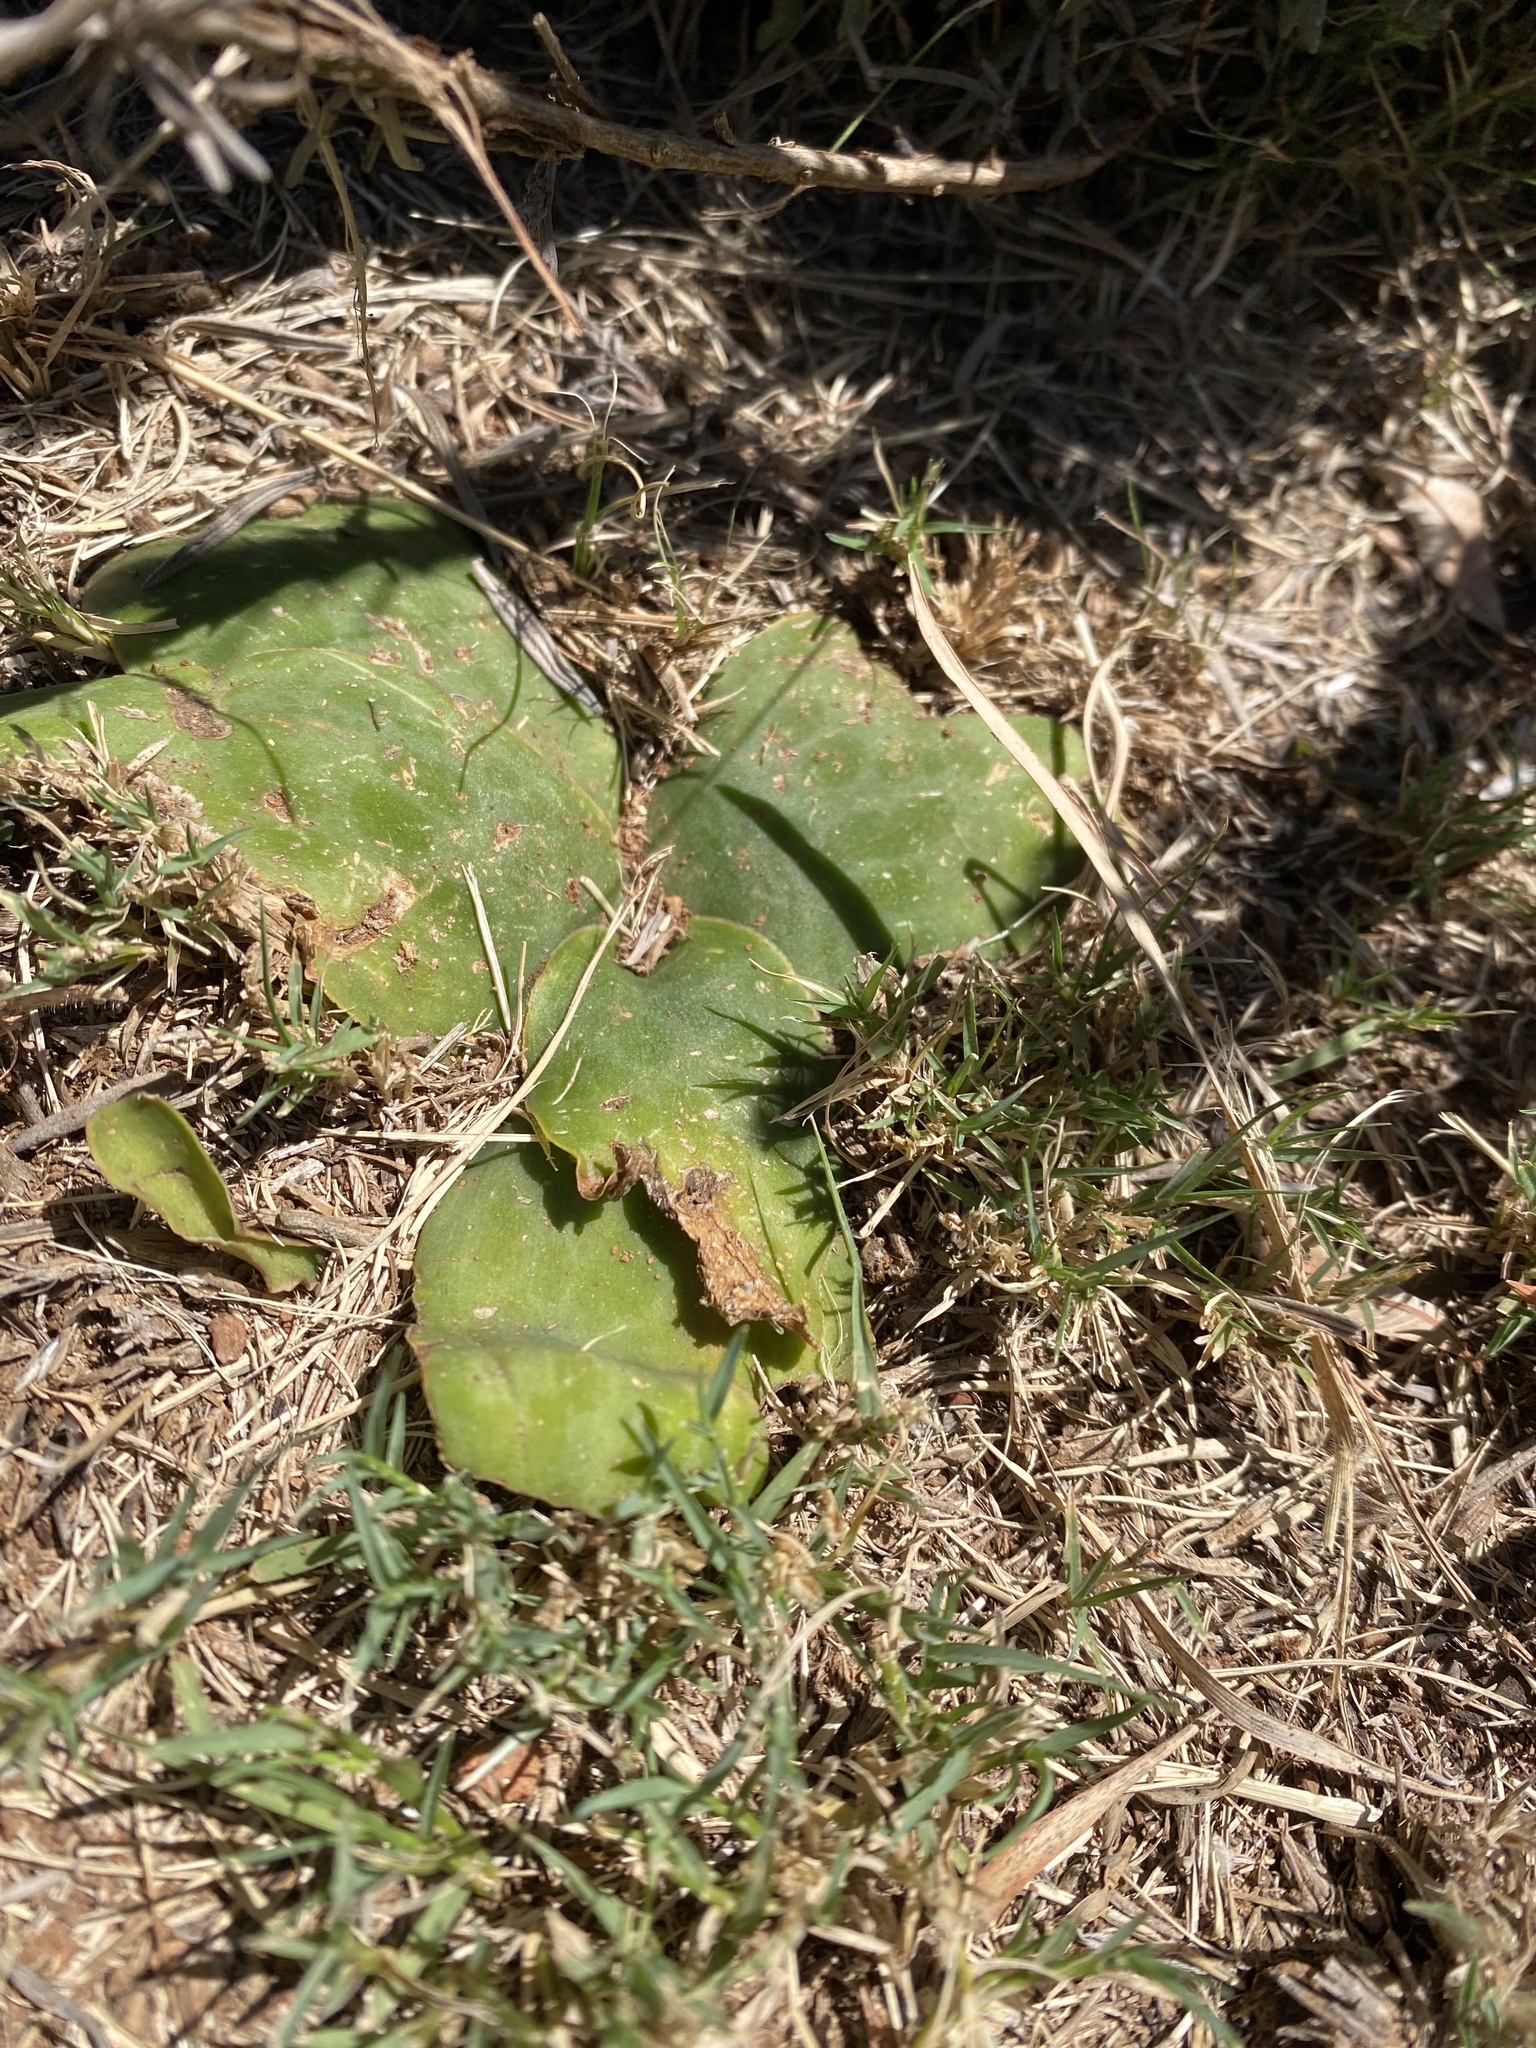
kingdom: Plantae
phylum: Tracheophyta
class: Liliopsida
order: Asparagales
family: Asparagaceae
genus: Ledebouria
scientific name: Ledebouria ovatifolia
